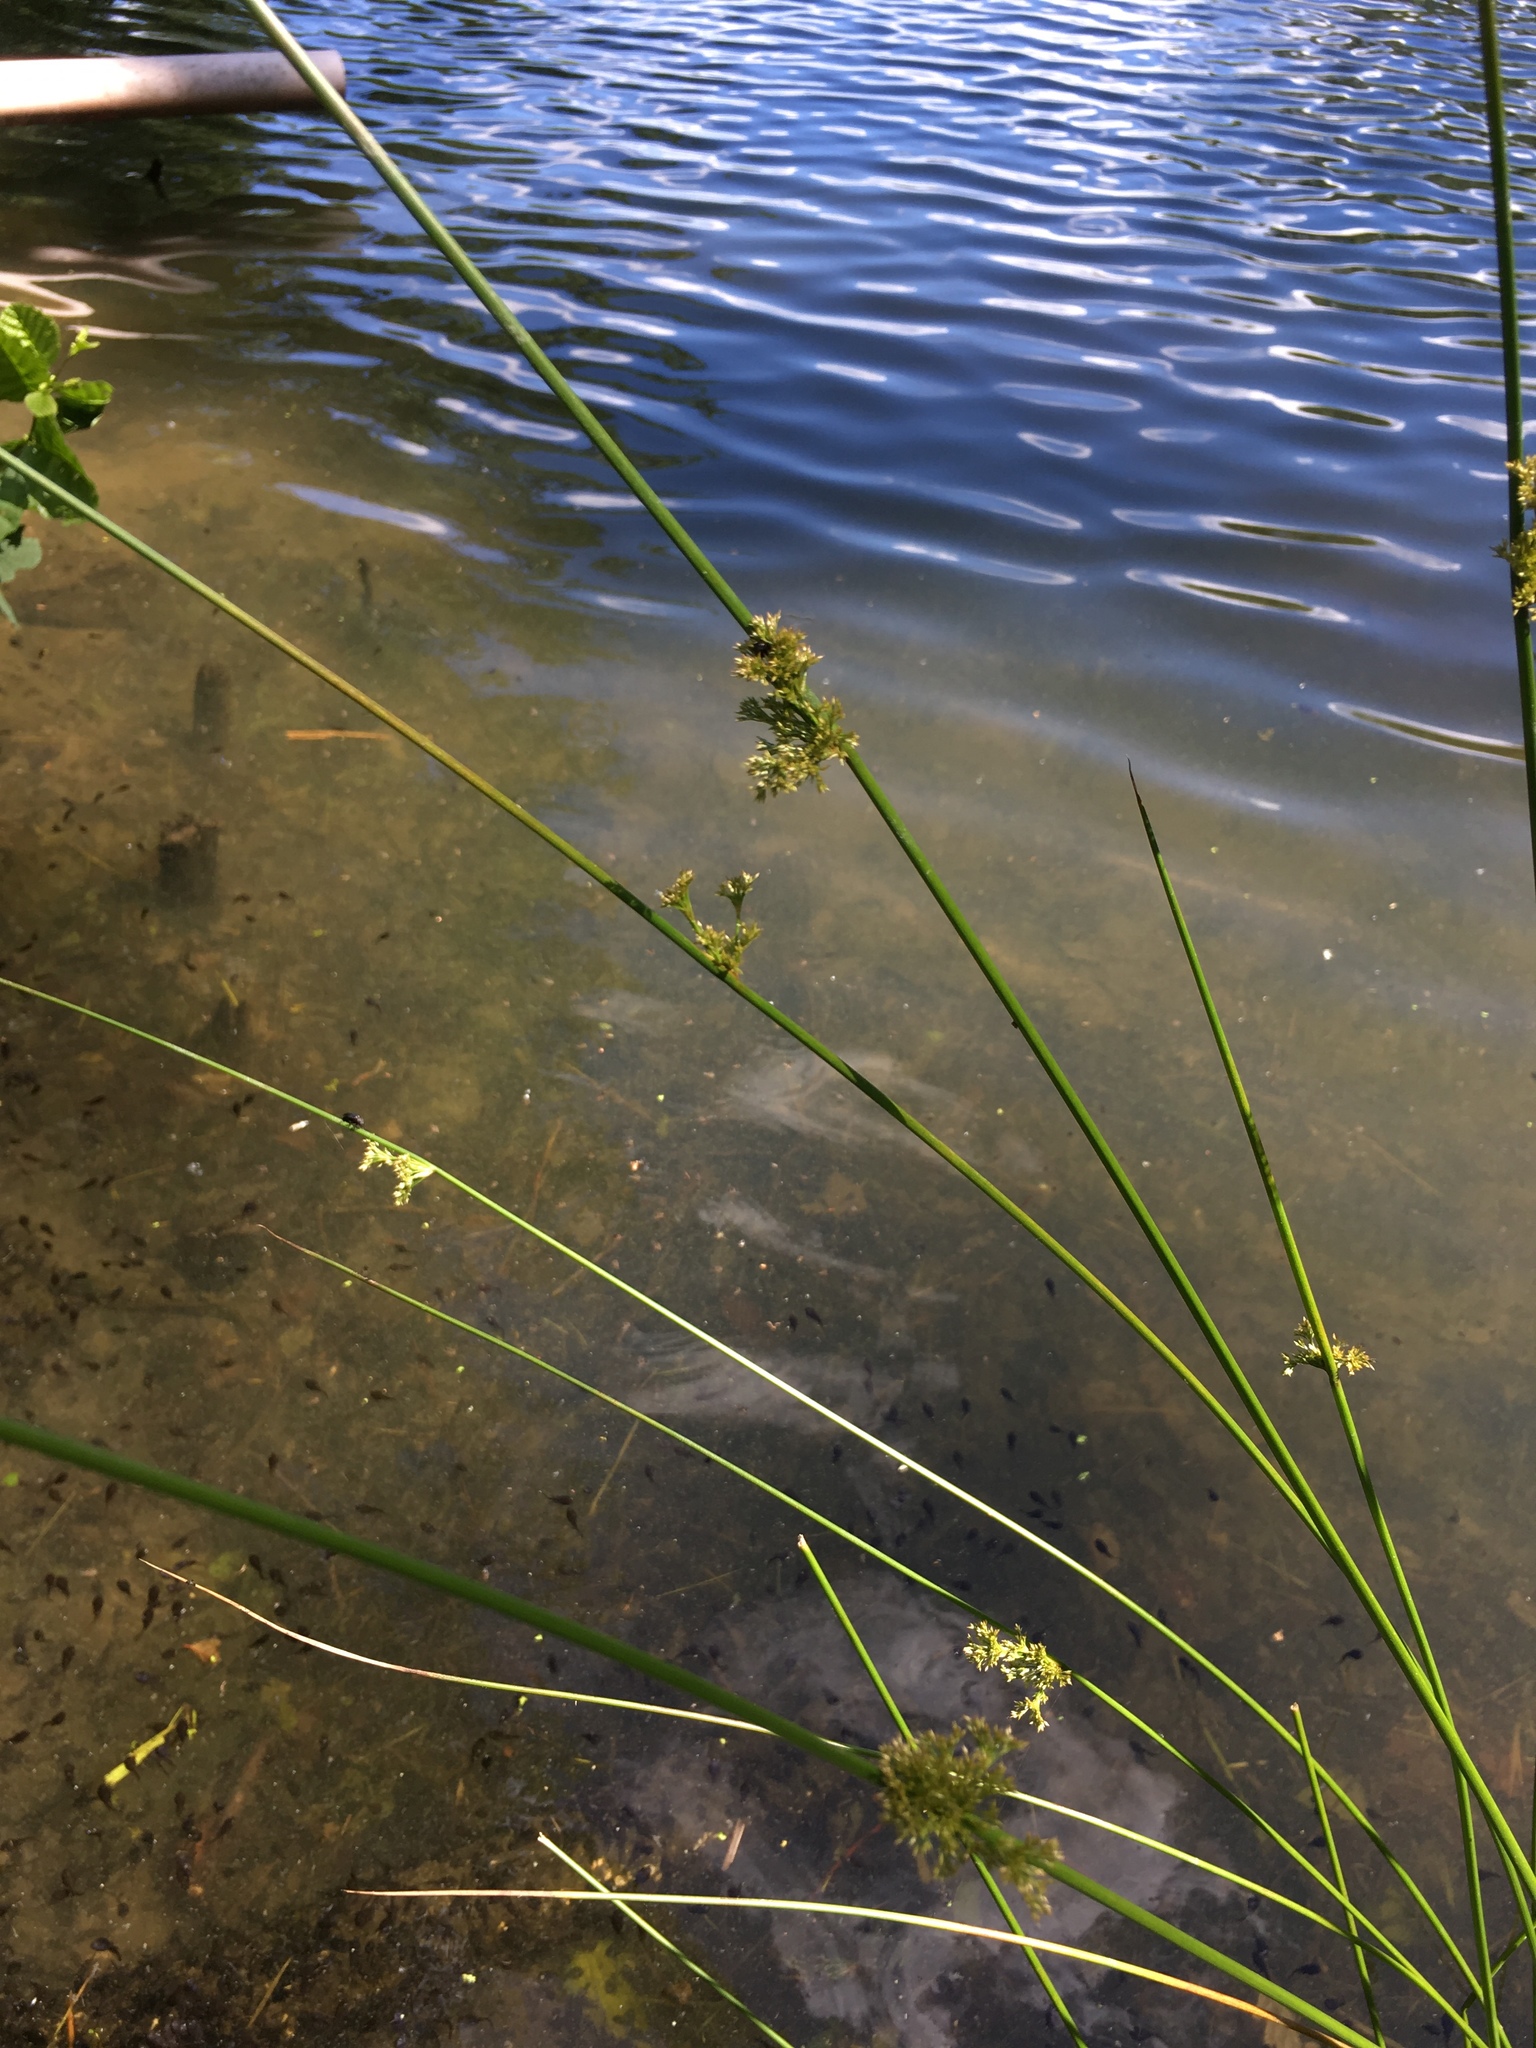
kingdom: Plantae
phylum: Tracheophyta
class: Liliopsida
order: Poales
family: Juncaceae
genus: Juncus
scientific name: Juncus effusus
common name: Soft rush
